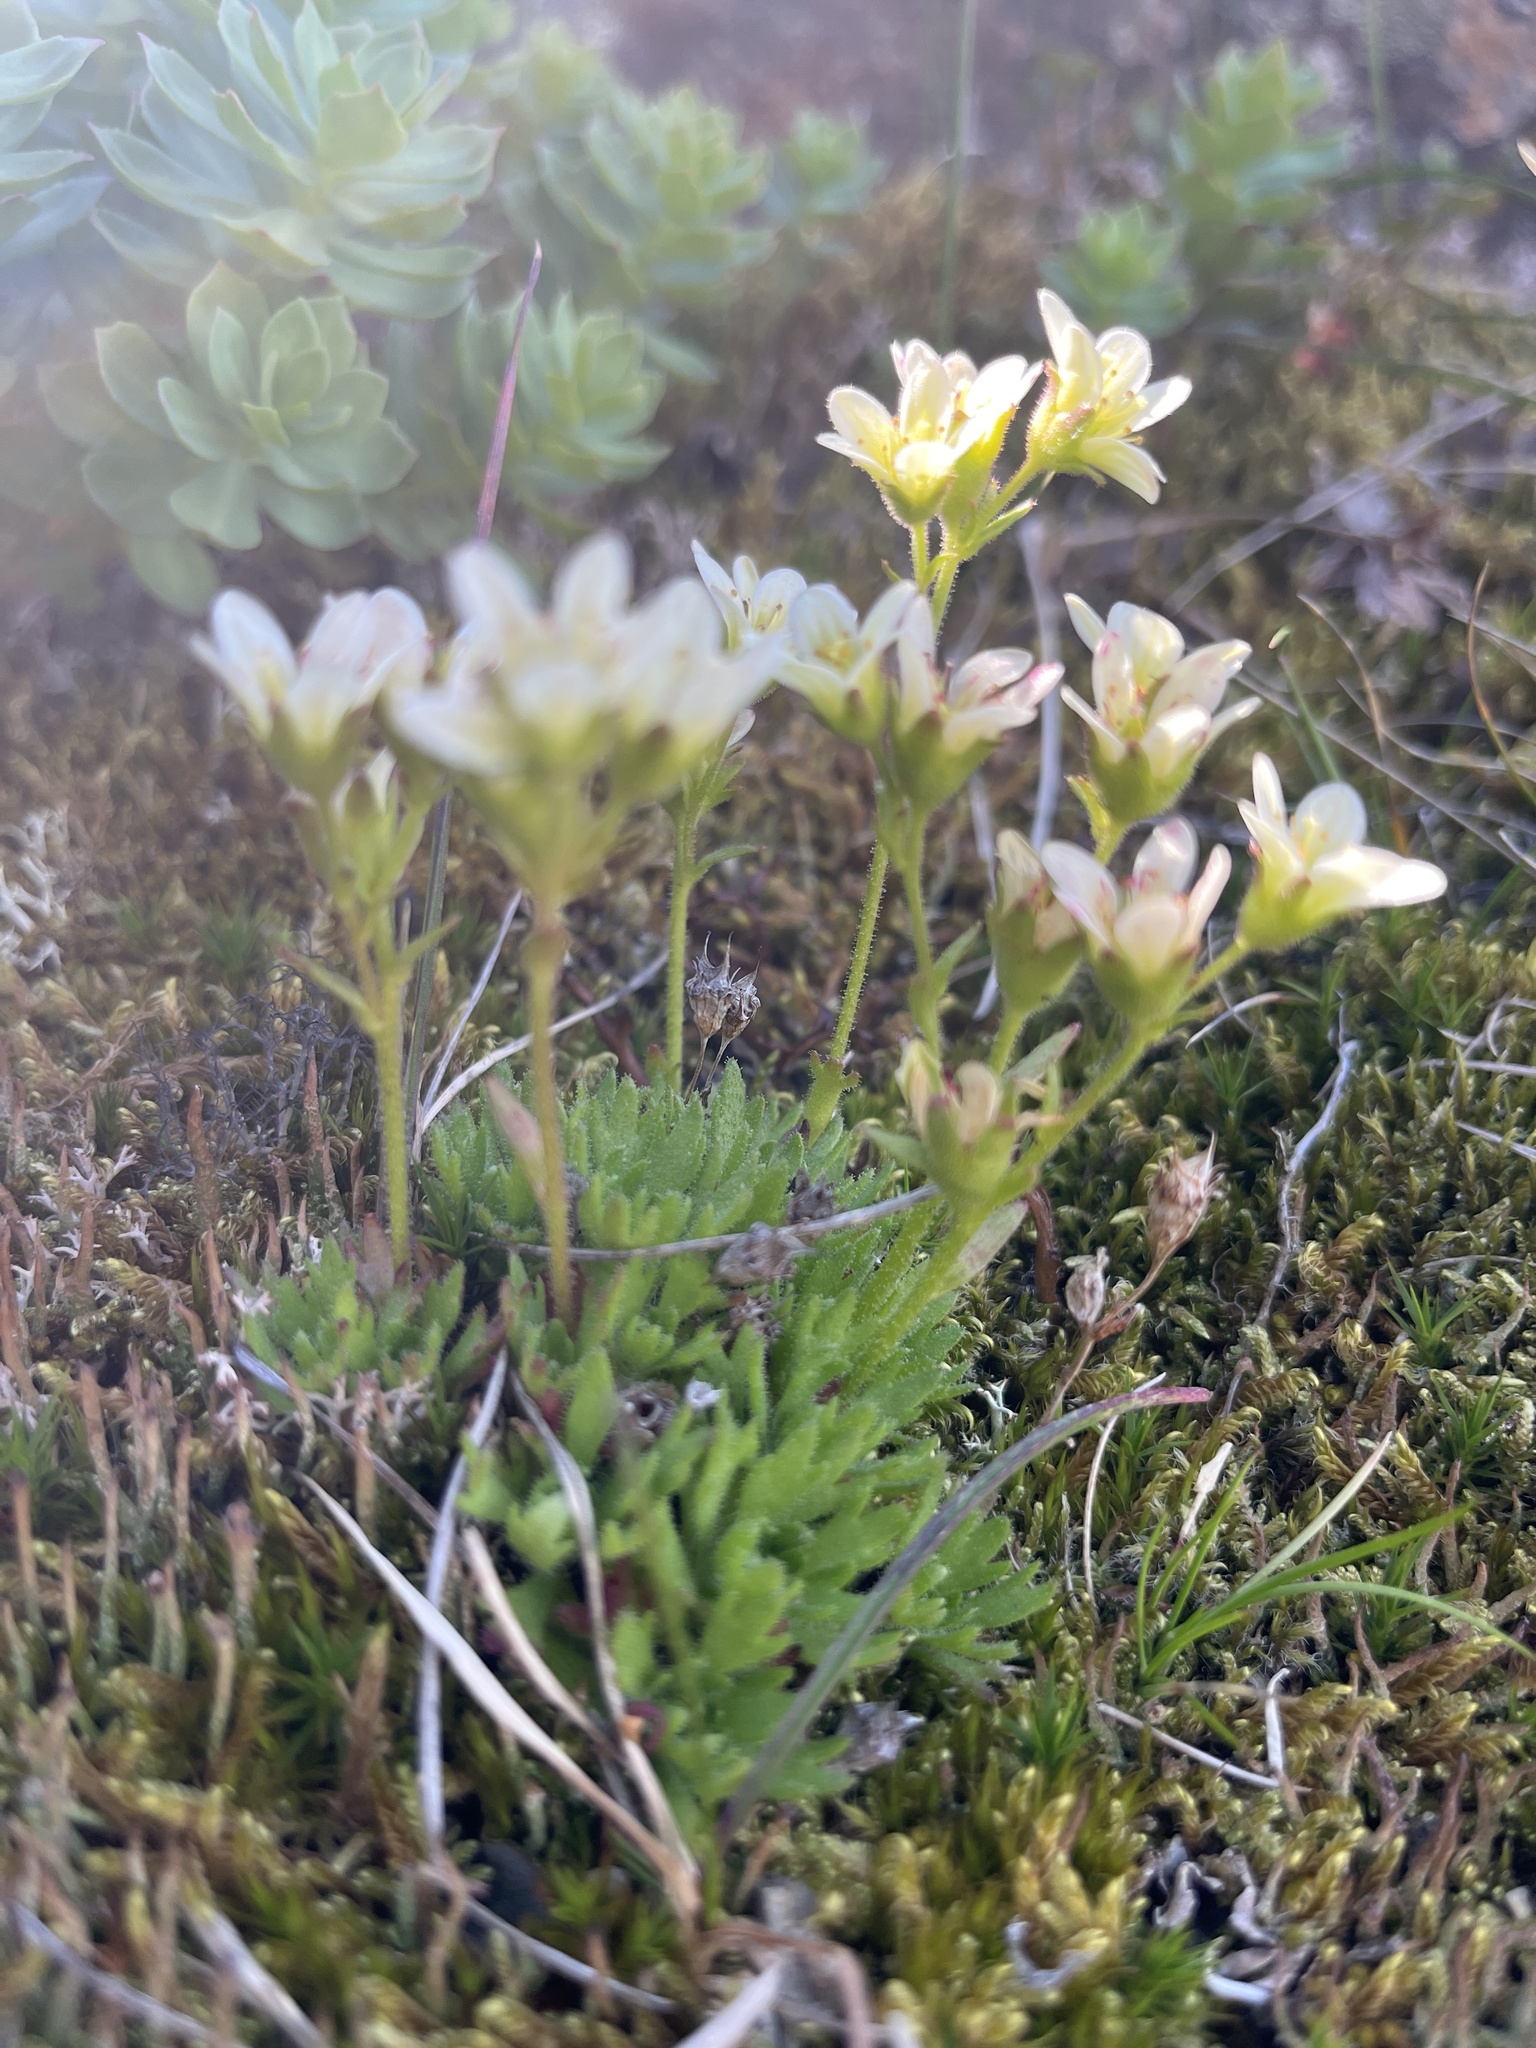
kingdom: Plantae
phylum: Tracheophyta
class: Magnoliopsida
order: Saxifragales
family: Saxifragaceae
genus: Saxifraga
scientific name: Saxifraga cespitosa
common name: Tufted saxifrage
